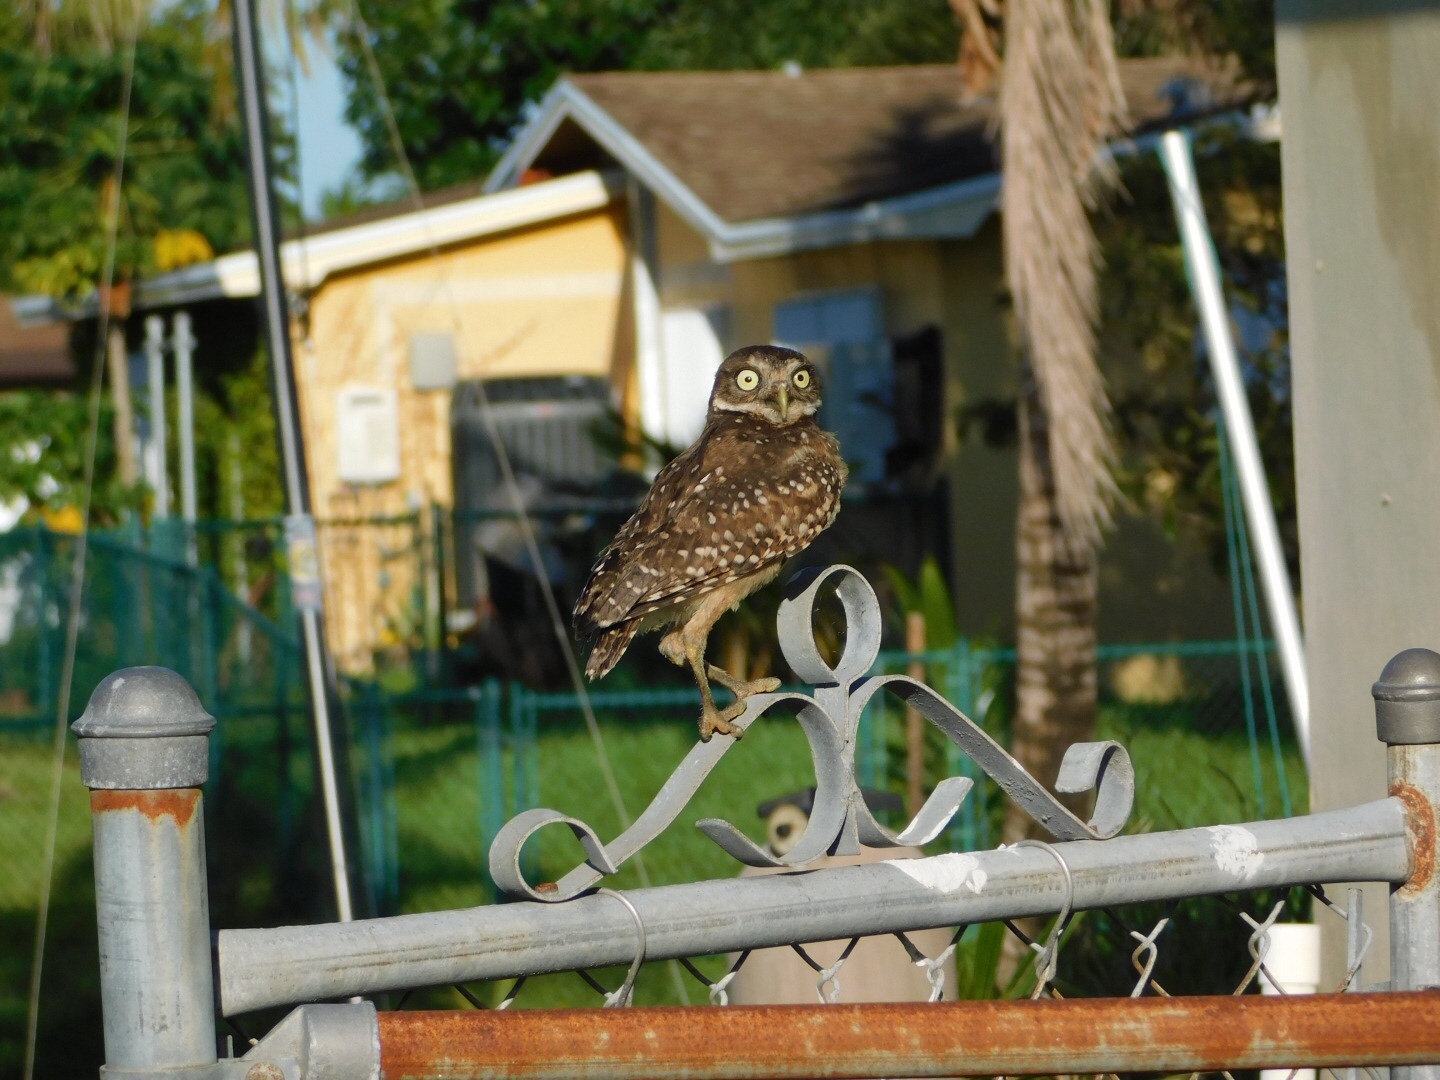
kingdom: Animalia
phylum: Chordata
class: Aves
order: Strigiformes
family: Strigidae
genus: Athene
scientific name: Athene cunicularia
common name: Burrowing owl
